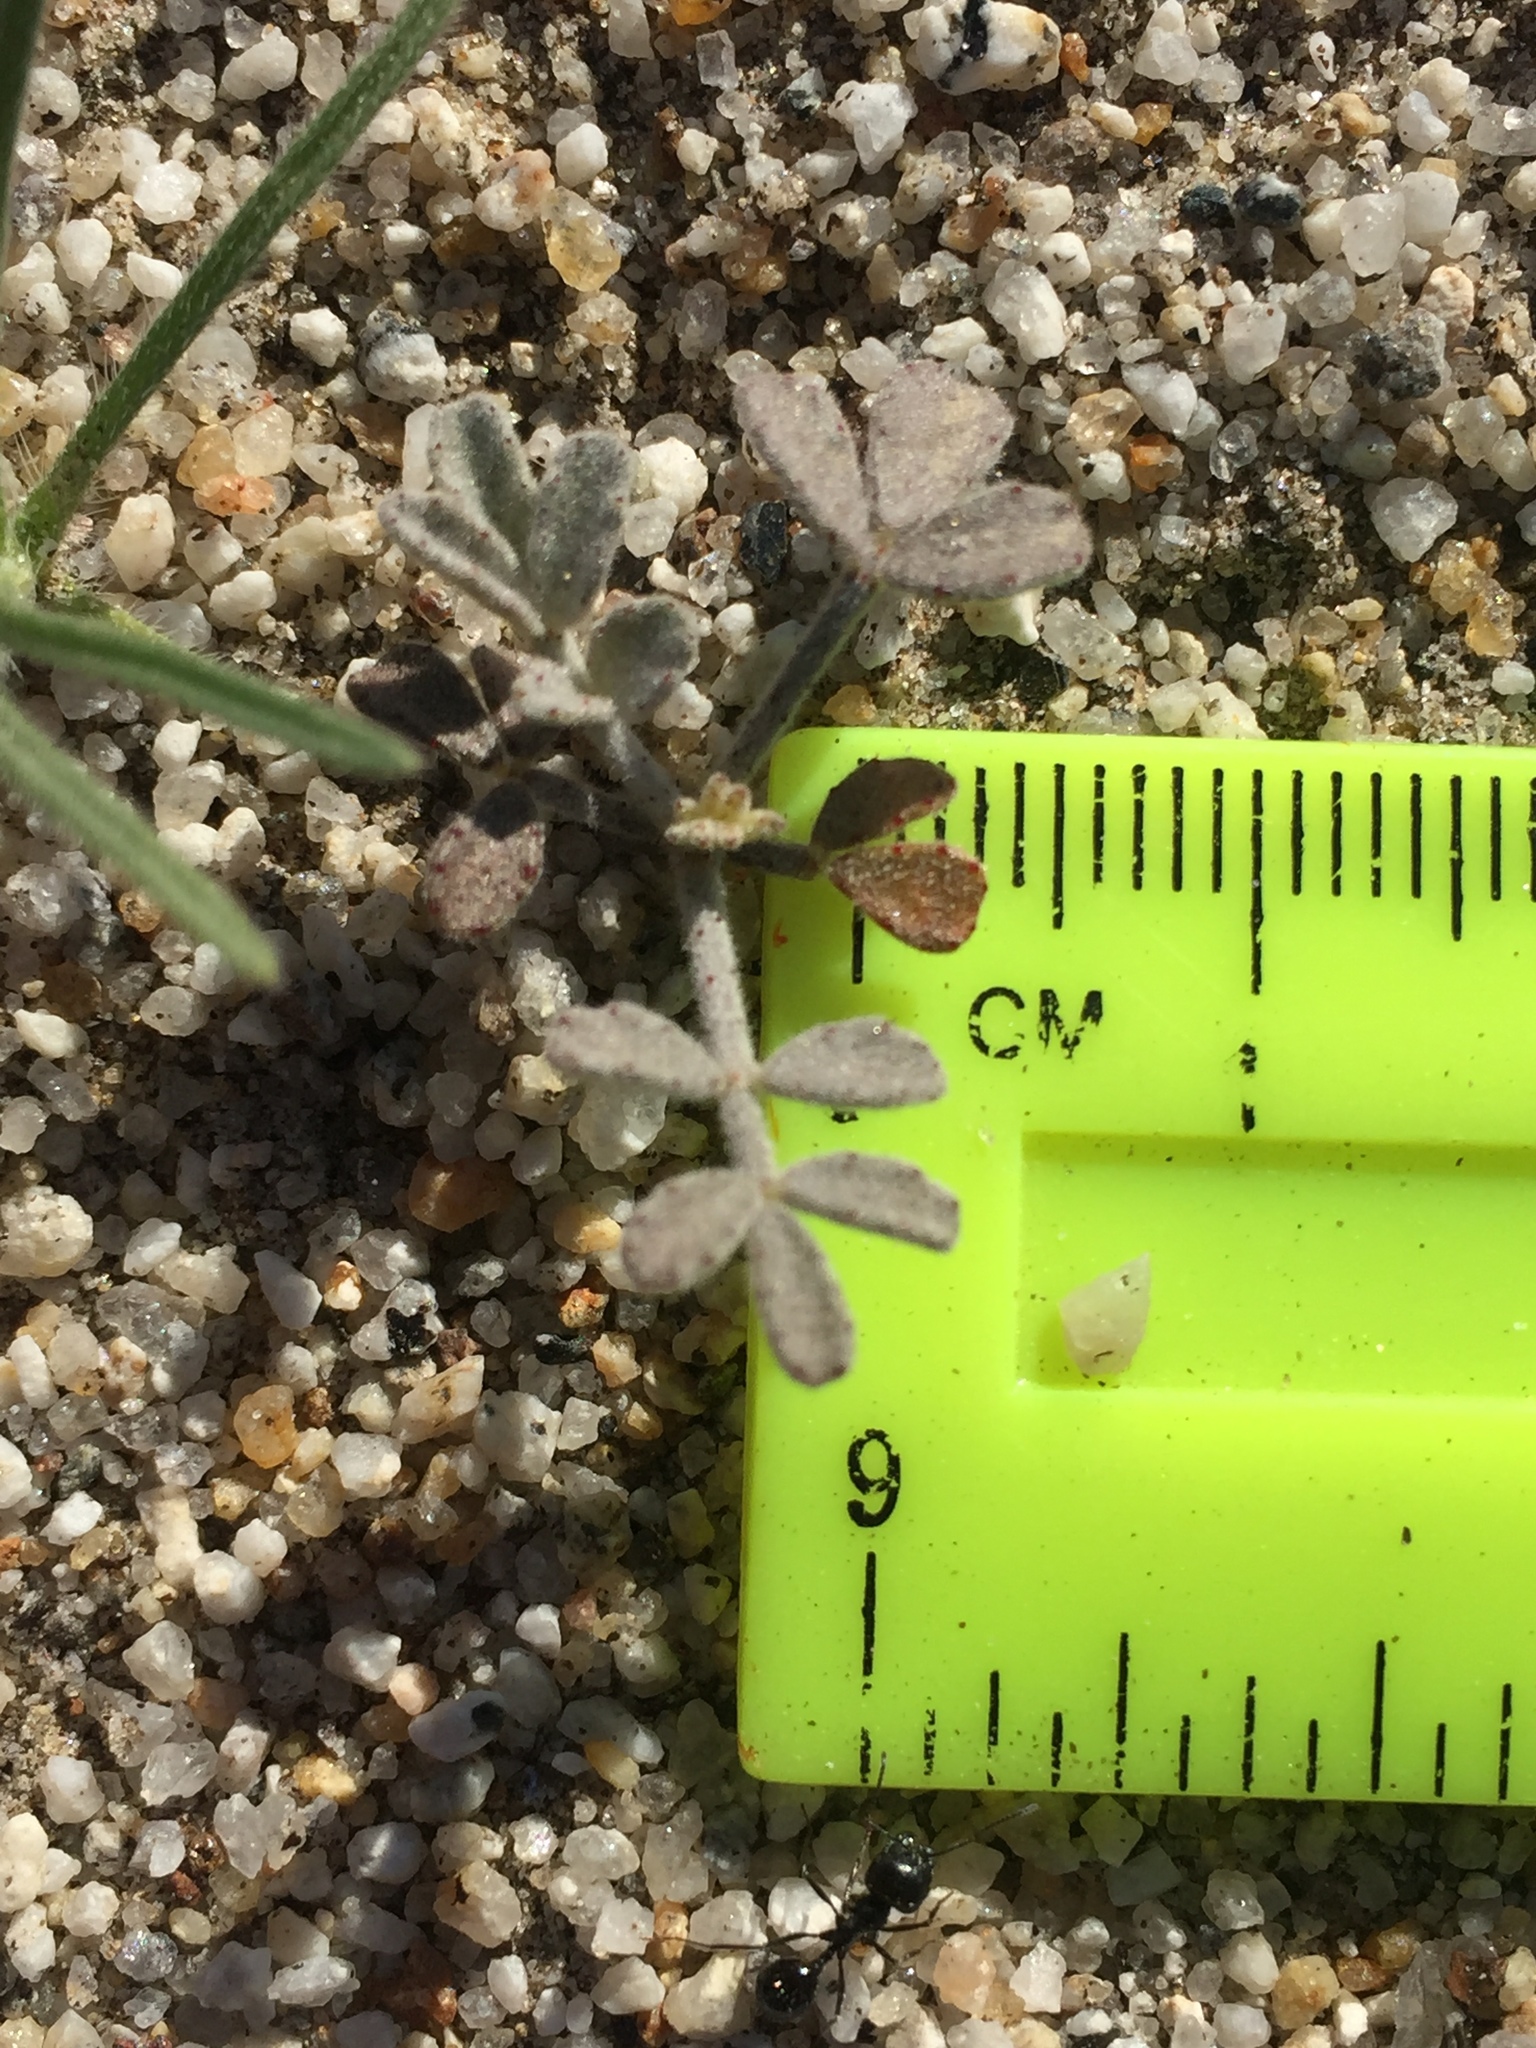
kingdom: Plantae
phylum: Tracheophyta
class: Magnoliopsida
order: Fabales
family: Fabaceae
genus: Psorothamnus
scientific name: Psorothamnus emoryi
